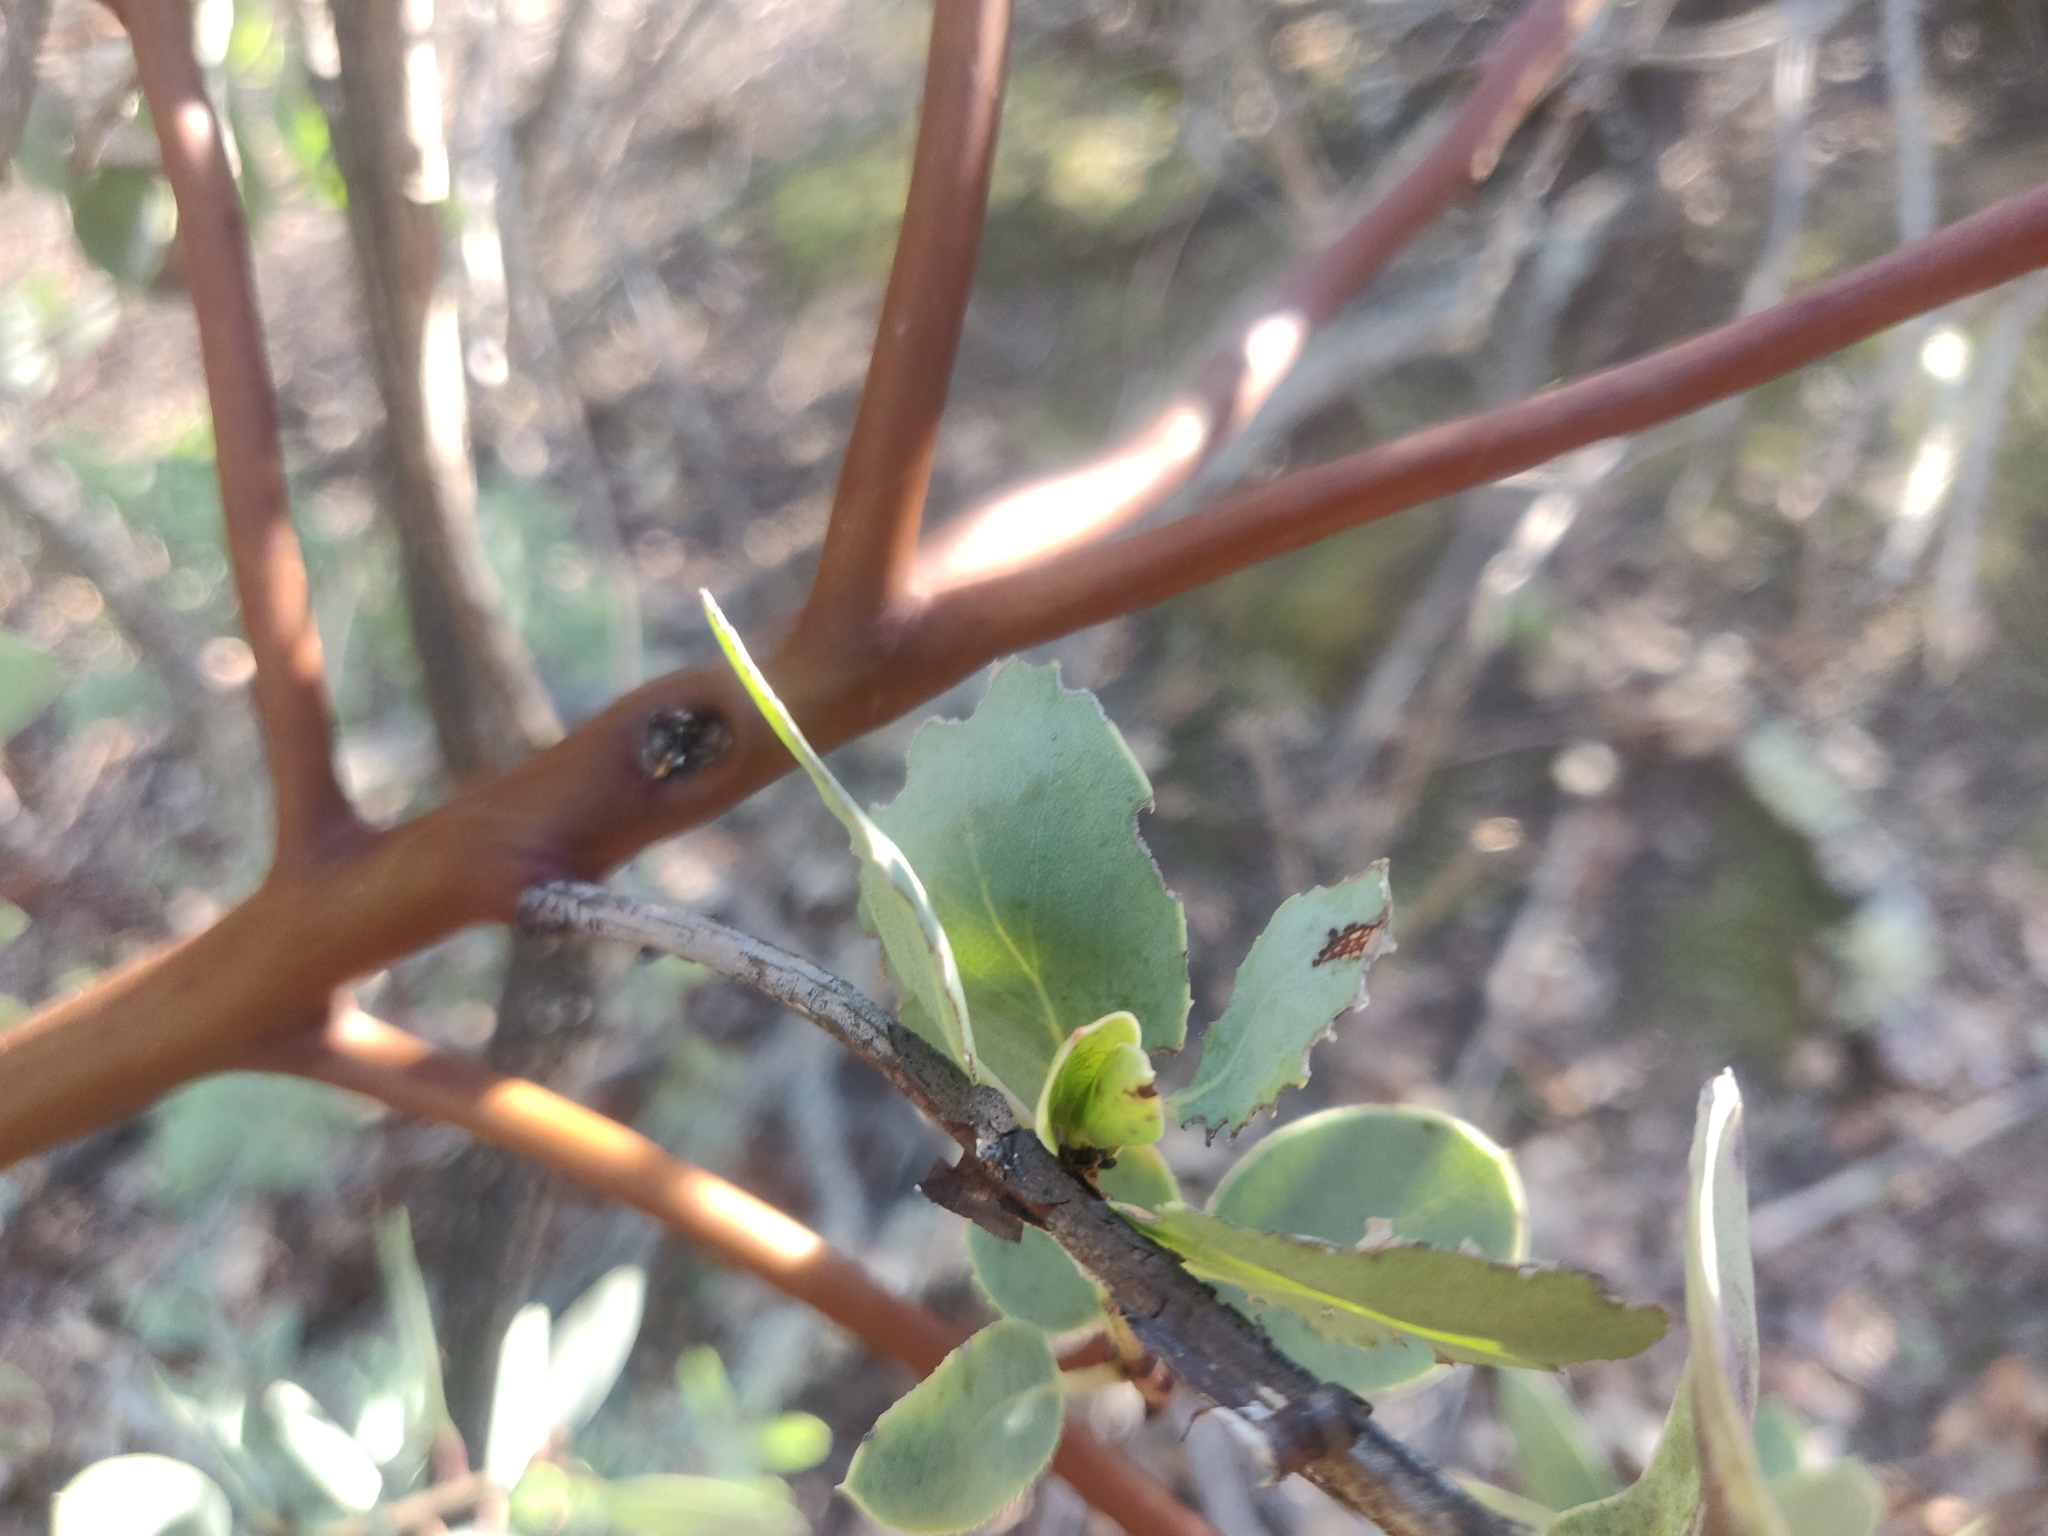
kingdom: Plantae
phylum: Tracheophyta
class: Magnoliopsida
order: Ericales
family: Ericaceae
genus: Arctostaphylos
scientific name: Arctostaphylos glauca
